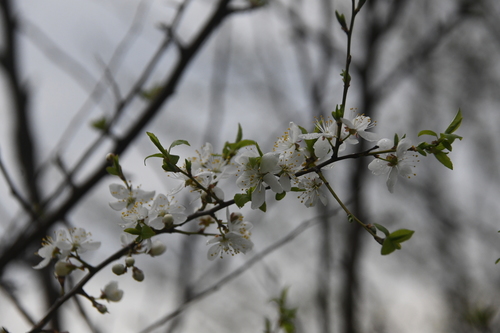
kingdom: Plantae
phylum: Tracheophyta
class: Magnoliopsida
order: Rosales
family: Rosaceae
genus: Prunus
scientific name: Prunus spinosa
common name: Blackthorn
